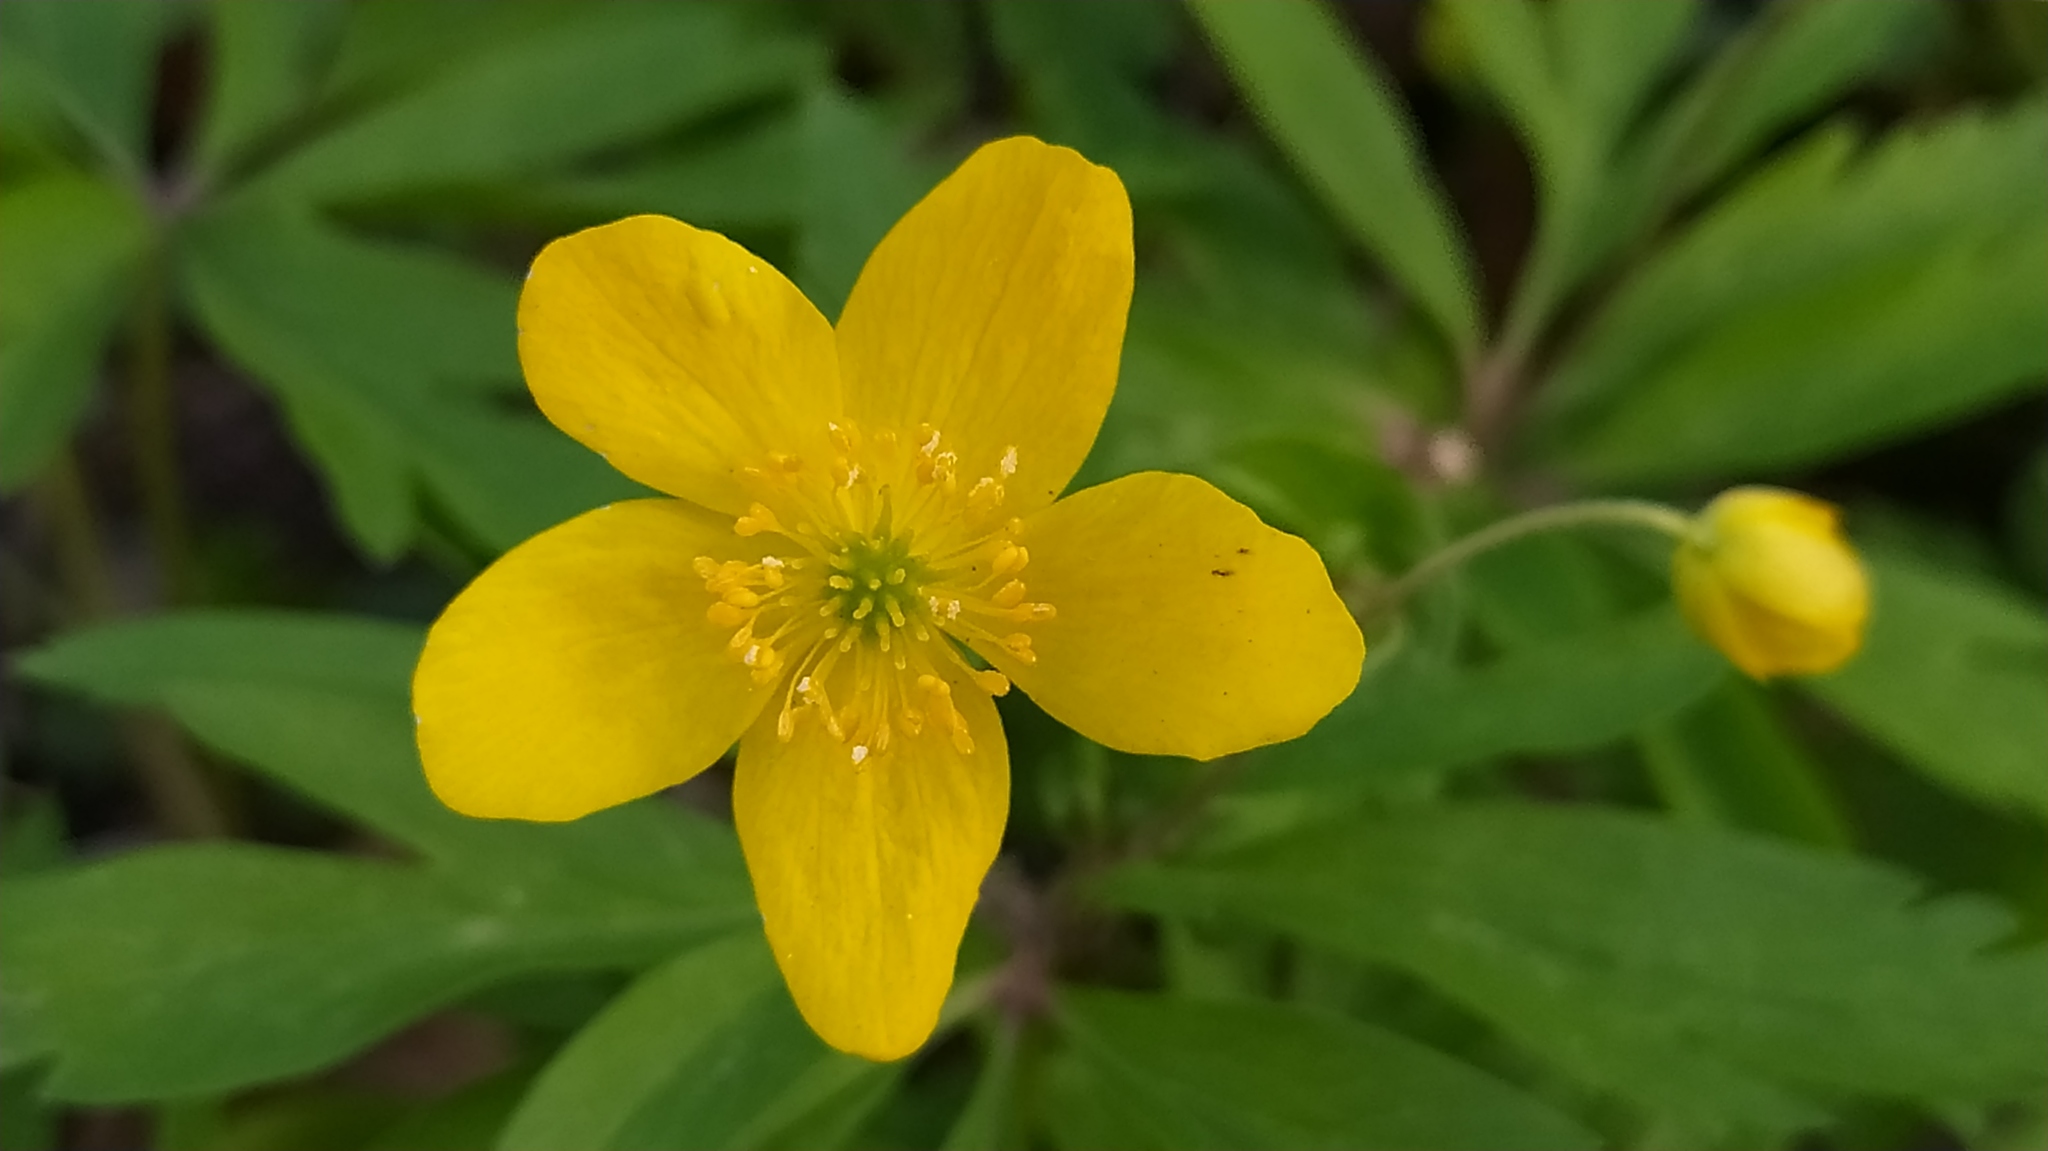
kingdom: Plantae
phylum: Tracheophyta
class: Magnoliopsida
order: Ranunculales
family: Ranunculaceae
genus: Anemone
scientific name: Anemone ranunculoides
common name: Yellow anemone
